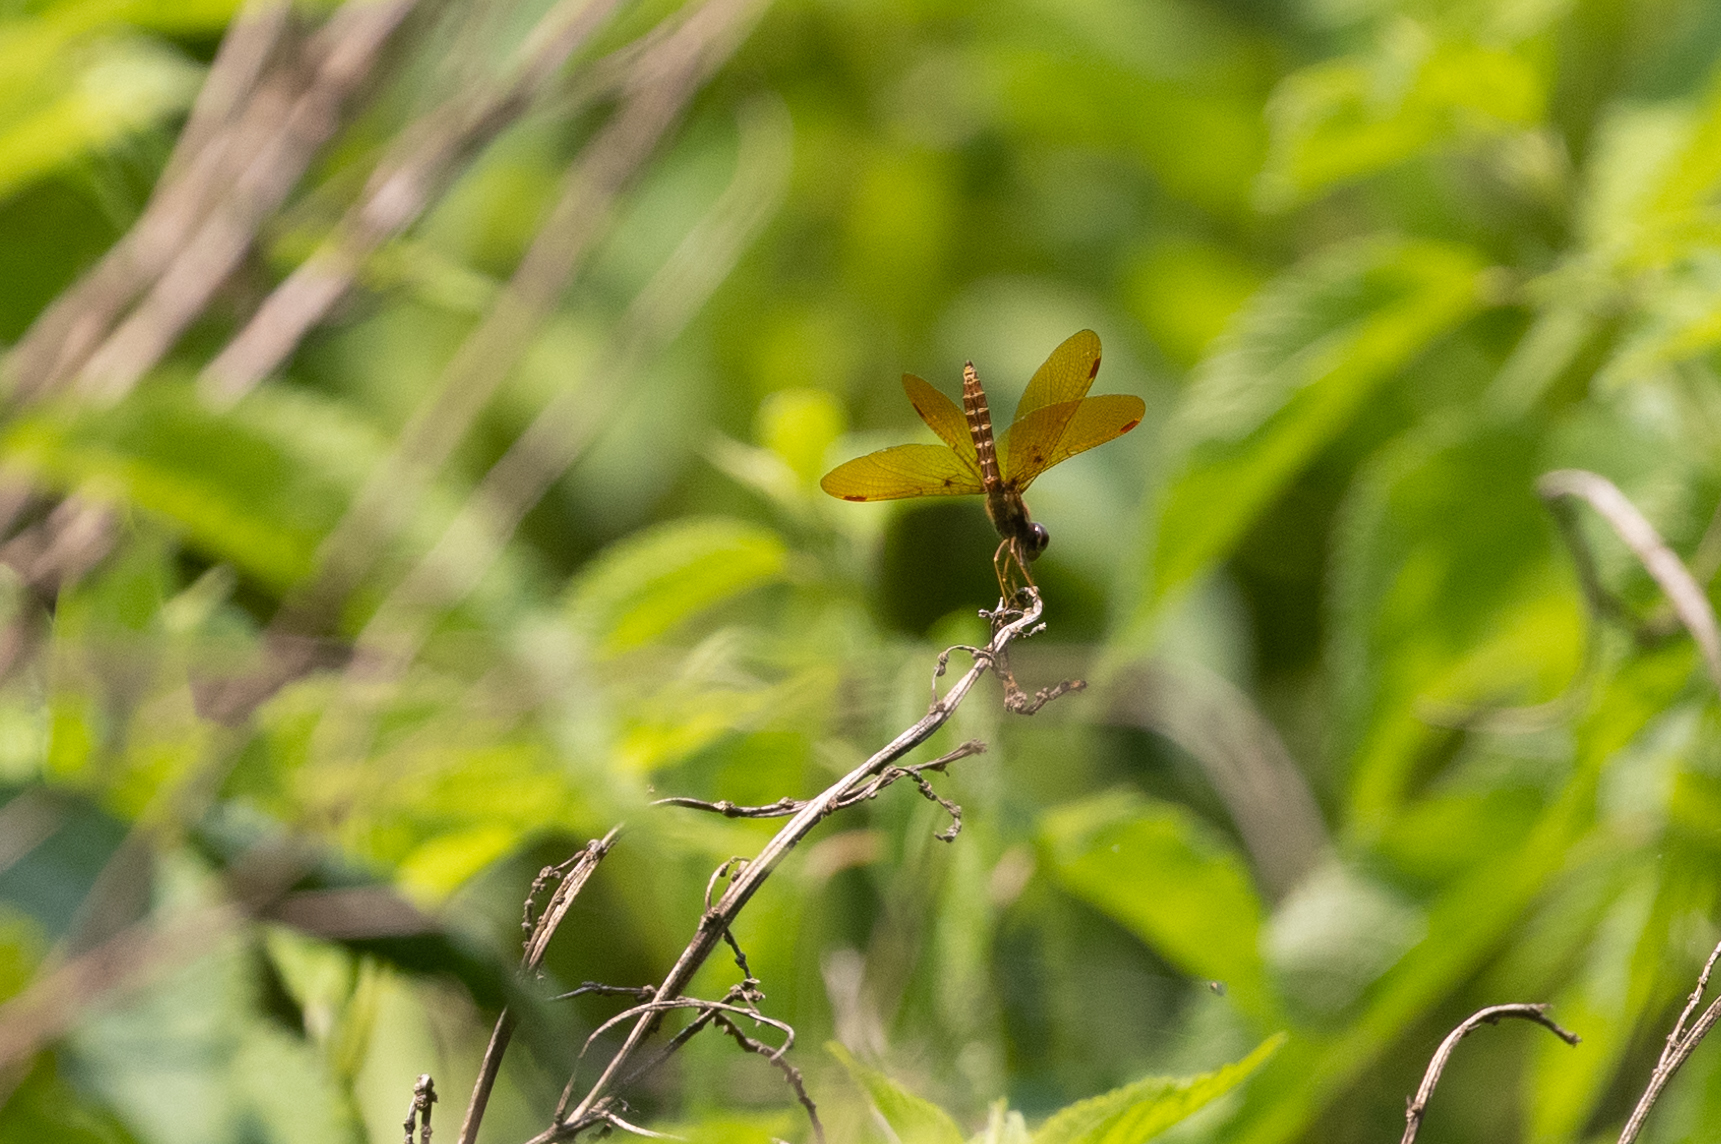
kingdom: Animalia
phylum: Arthropoda
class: Insecta
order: Odonata
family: Libellulidae
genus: Perithemis
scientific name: Perithemis tenera
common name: Eastern amberwing
